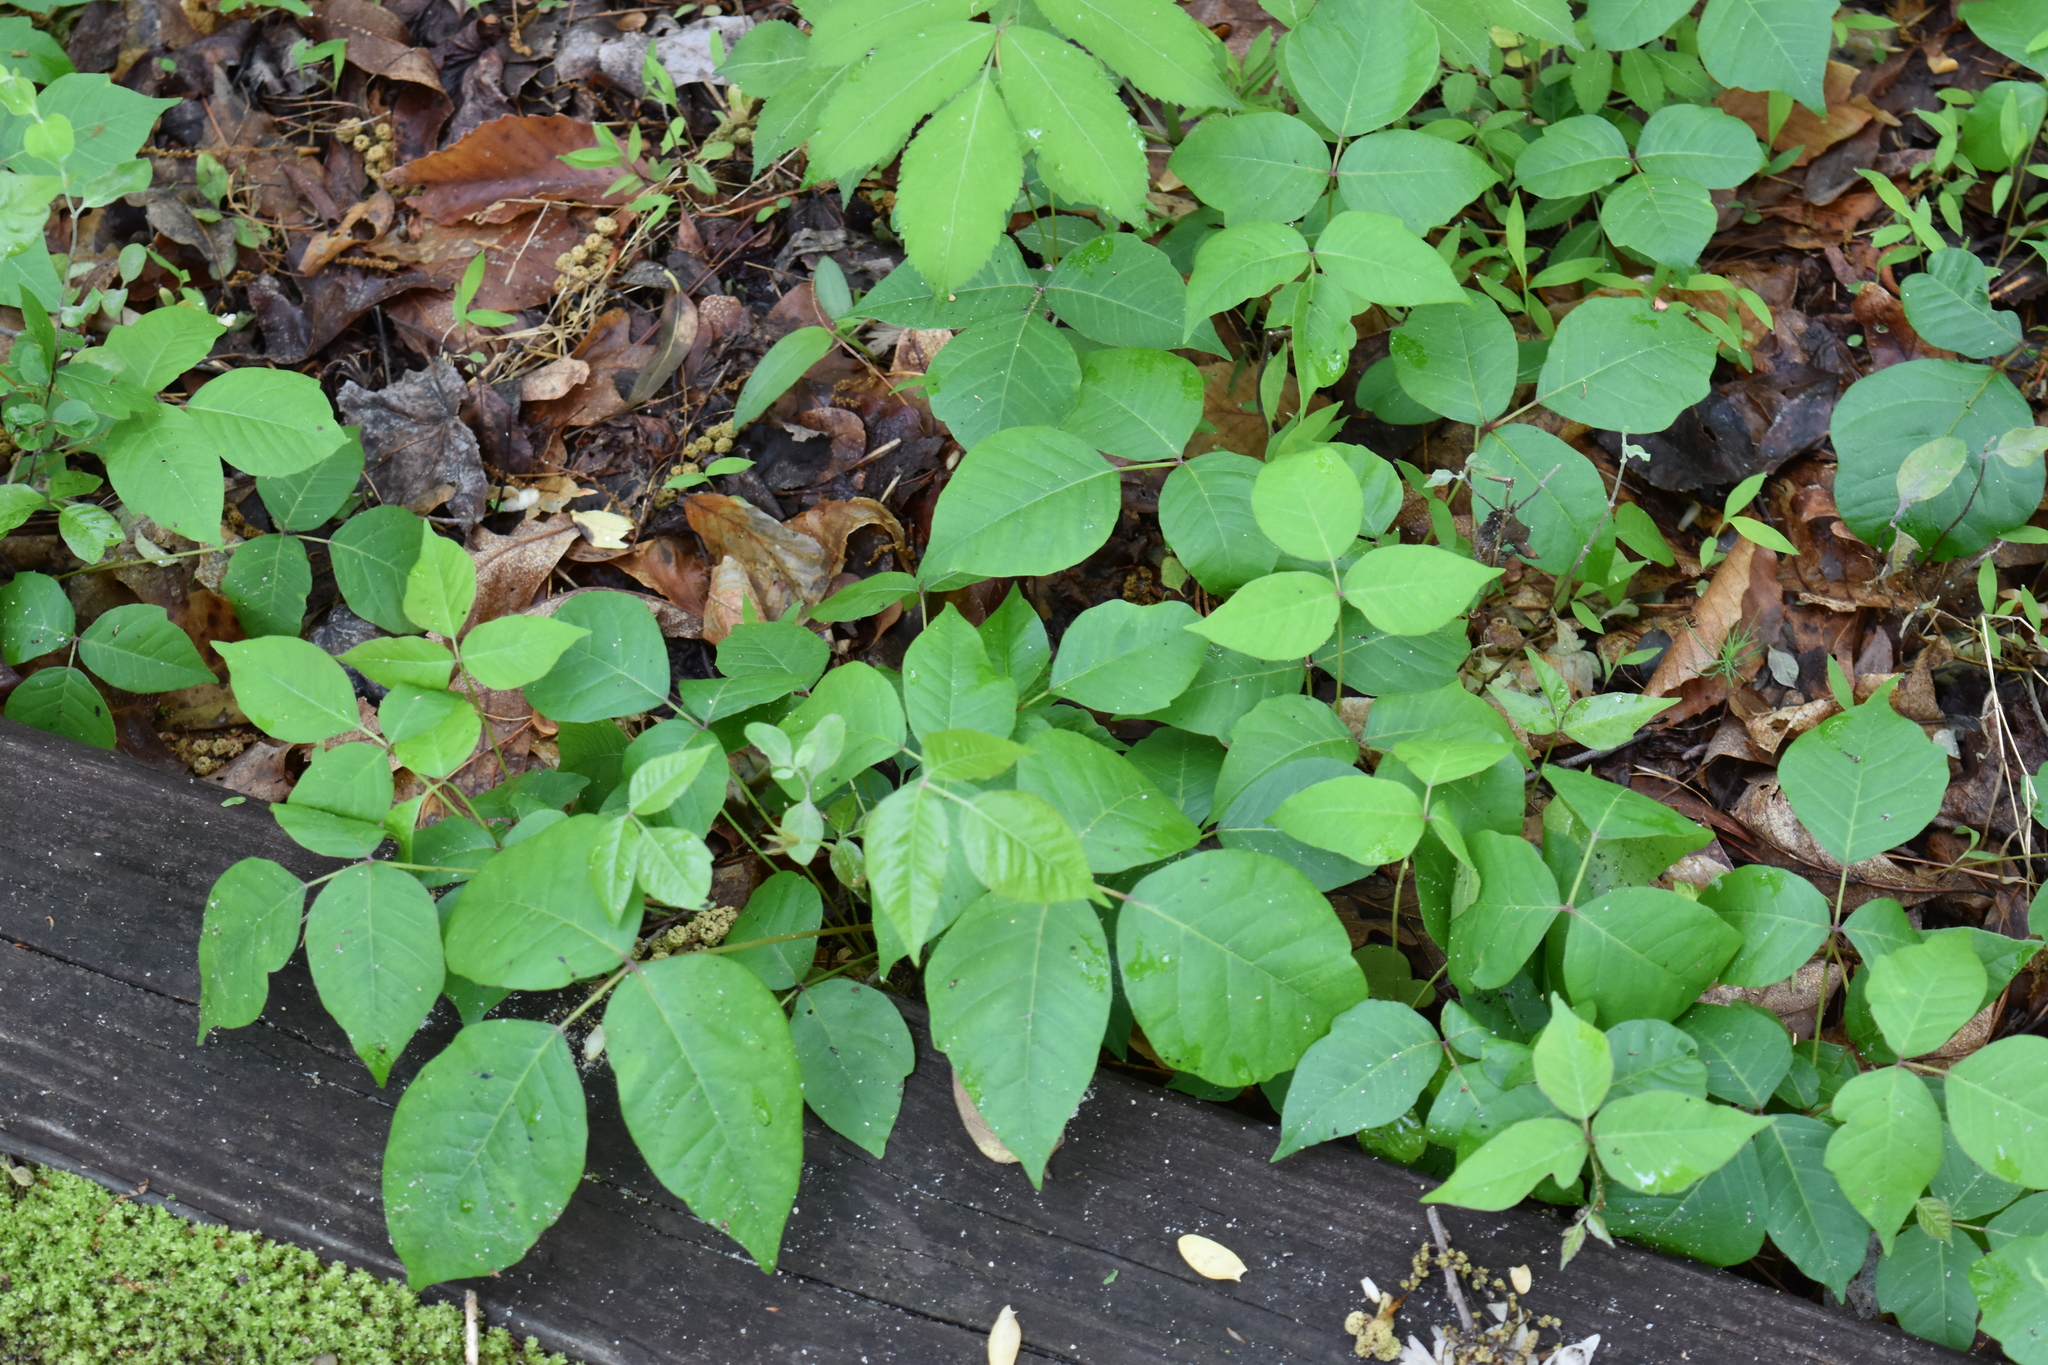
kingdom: Plantae
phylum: Tracheophyta
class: Magnoliopsida
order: Sapindales
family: Anacardiaceae
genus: Toxicodendron
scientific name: Toxicodendron radicans
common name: Poison ivy
